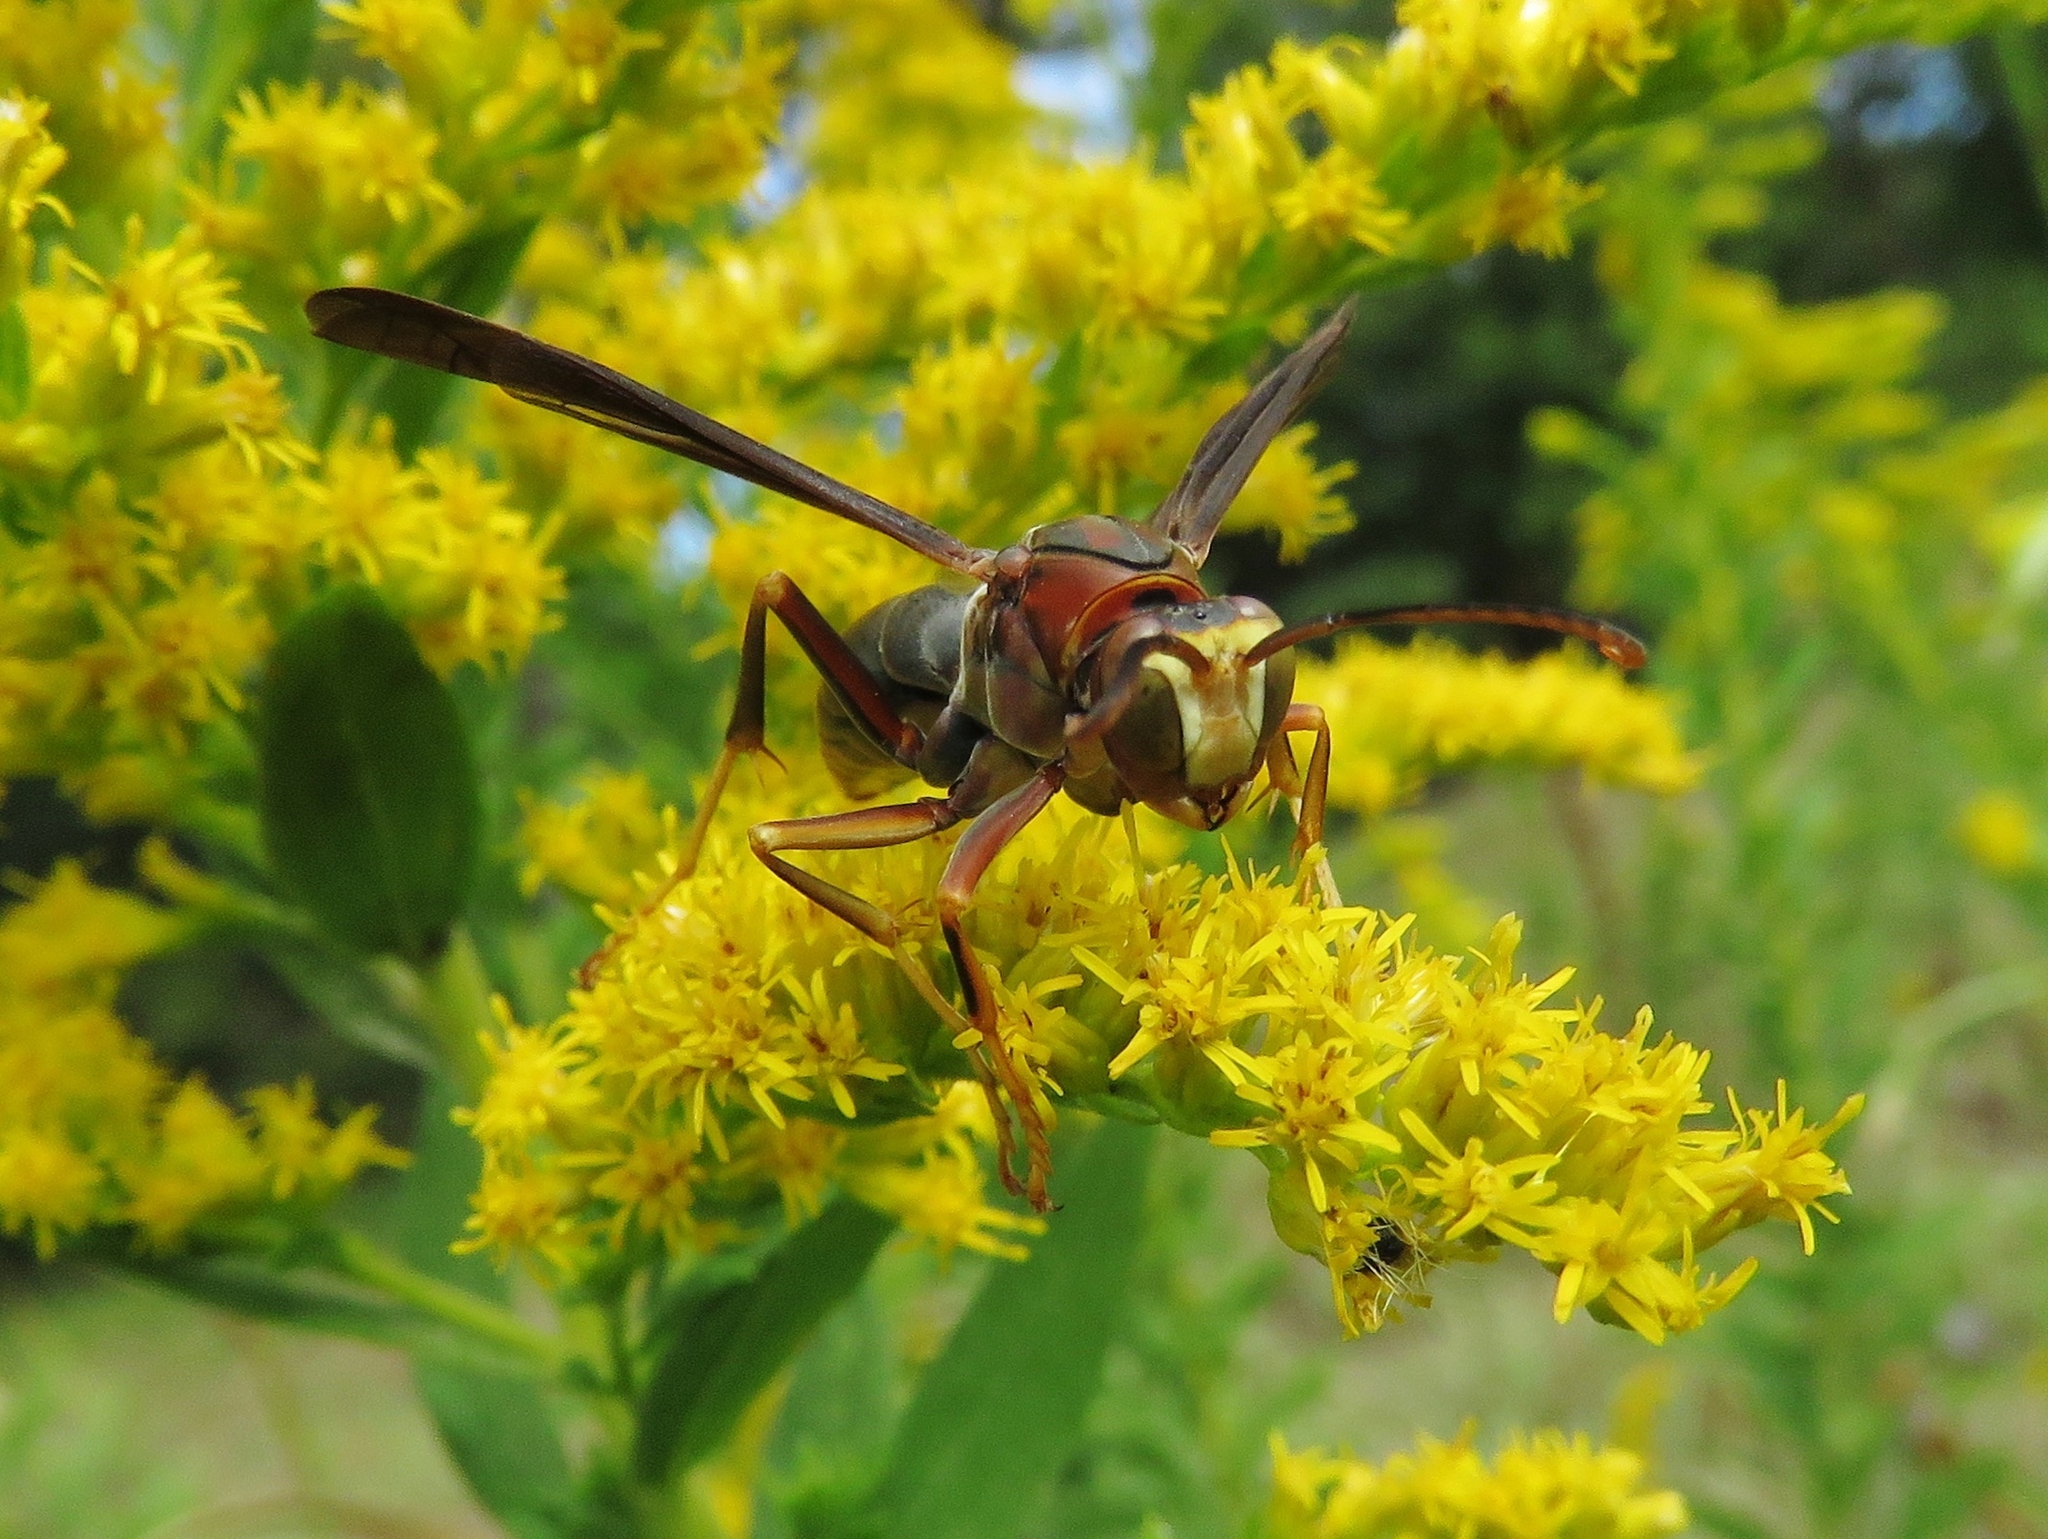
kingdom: Animalia
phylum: Arthropoda
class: Insecta
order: Hymenoptera
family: Eumenidae
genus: Polistes
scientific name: Polistes metricus
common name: Metric paper wasp
